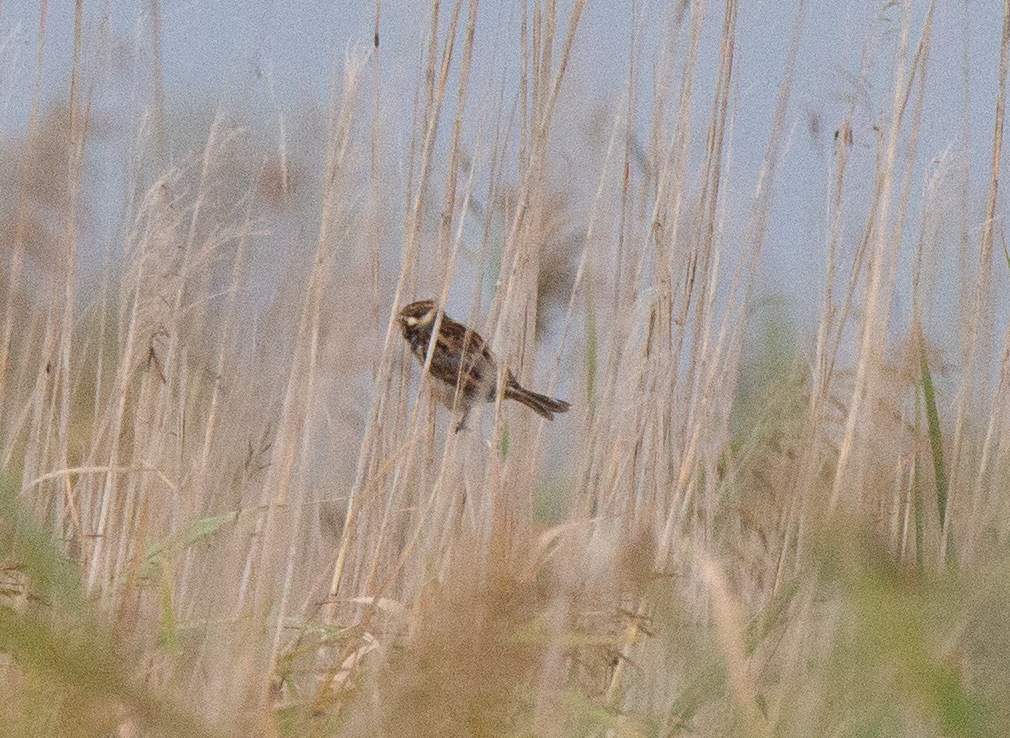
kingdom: Animalia
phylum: Chordata
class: Aves
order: Passeriformes
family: Emberizidae
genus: Emberiza
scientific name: Emberiza schoeniclus
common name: Reed bunting
